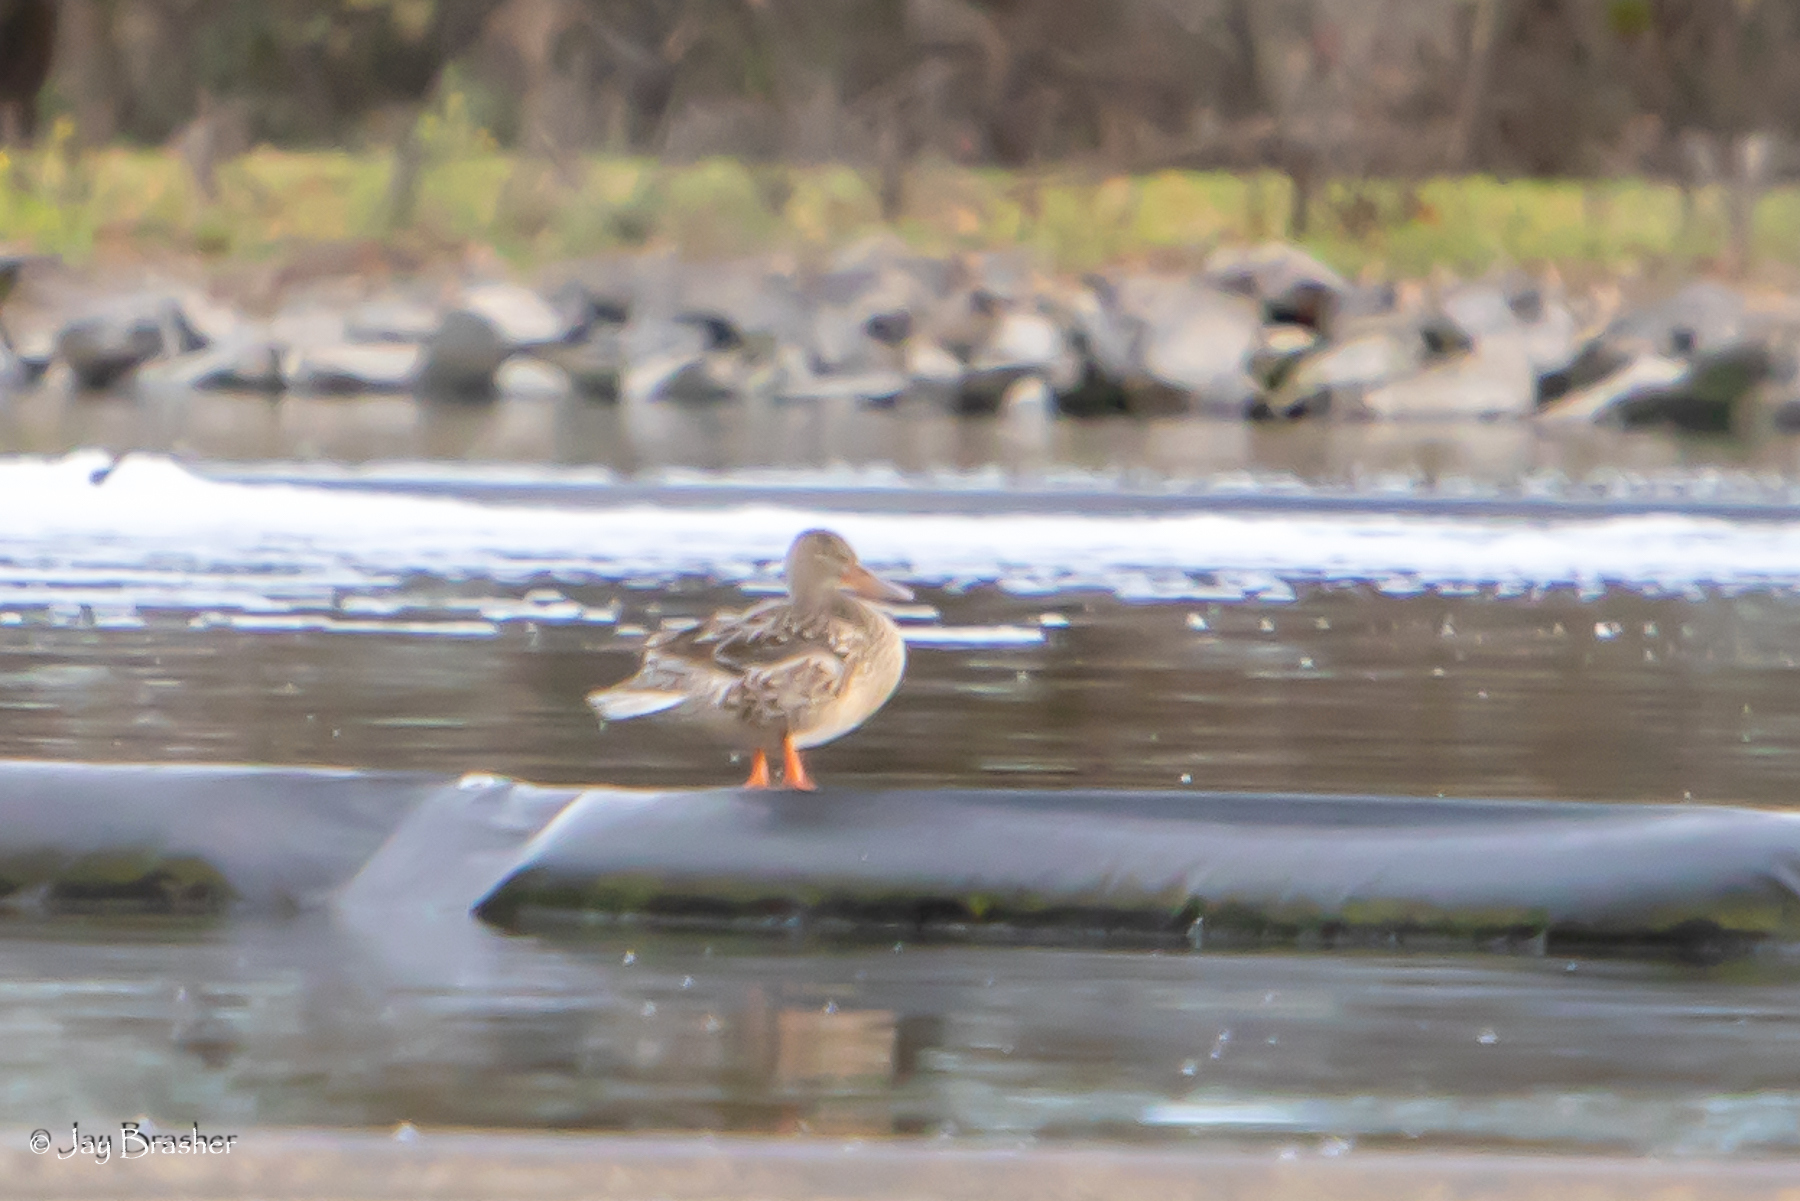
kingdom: Animalia
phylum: Chordata
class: Aves
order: Anseriformes
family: Anatidae
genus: Spatula
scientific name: Spatula clypeata
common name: Northern shoveler
